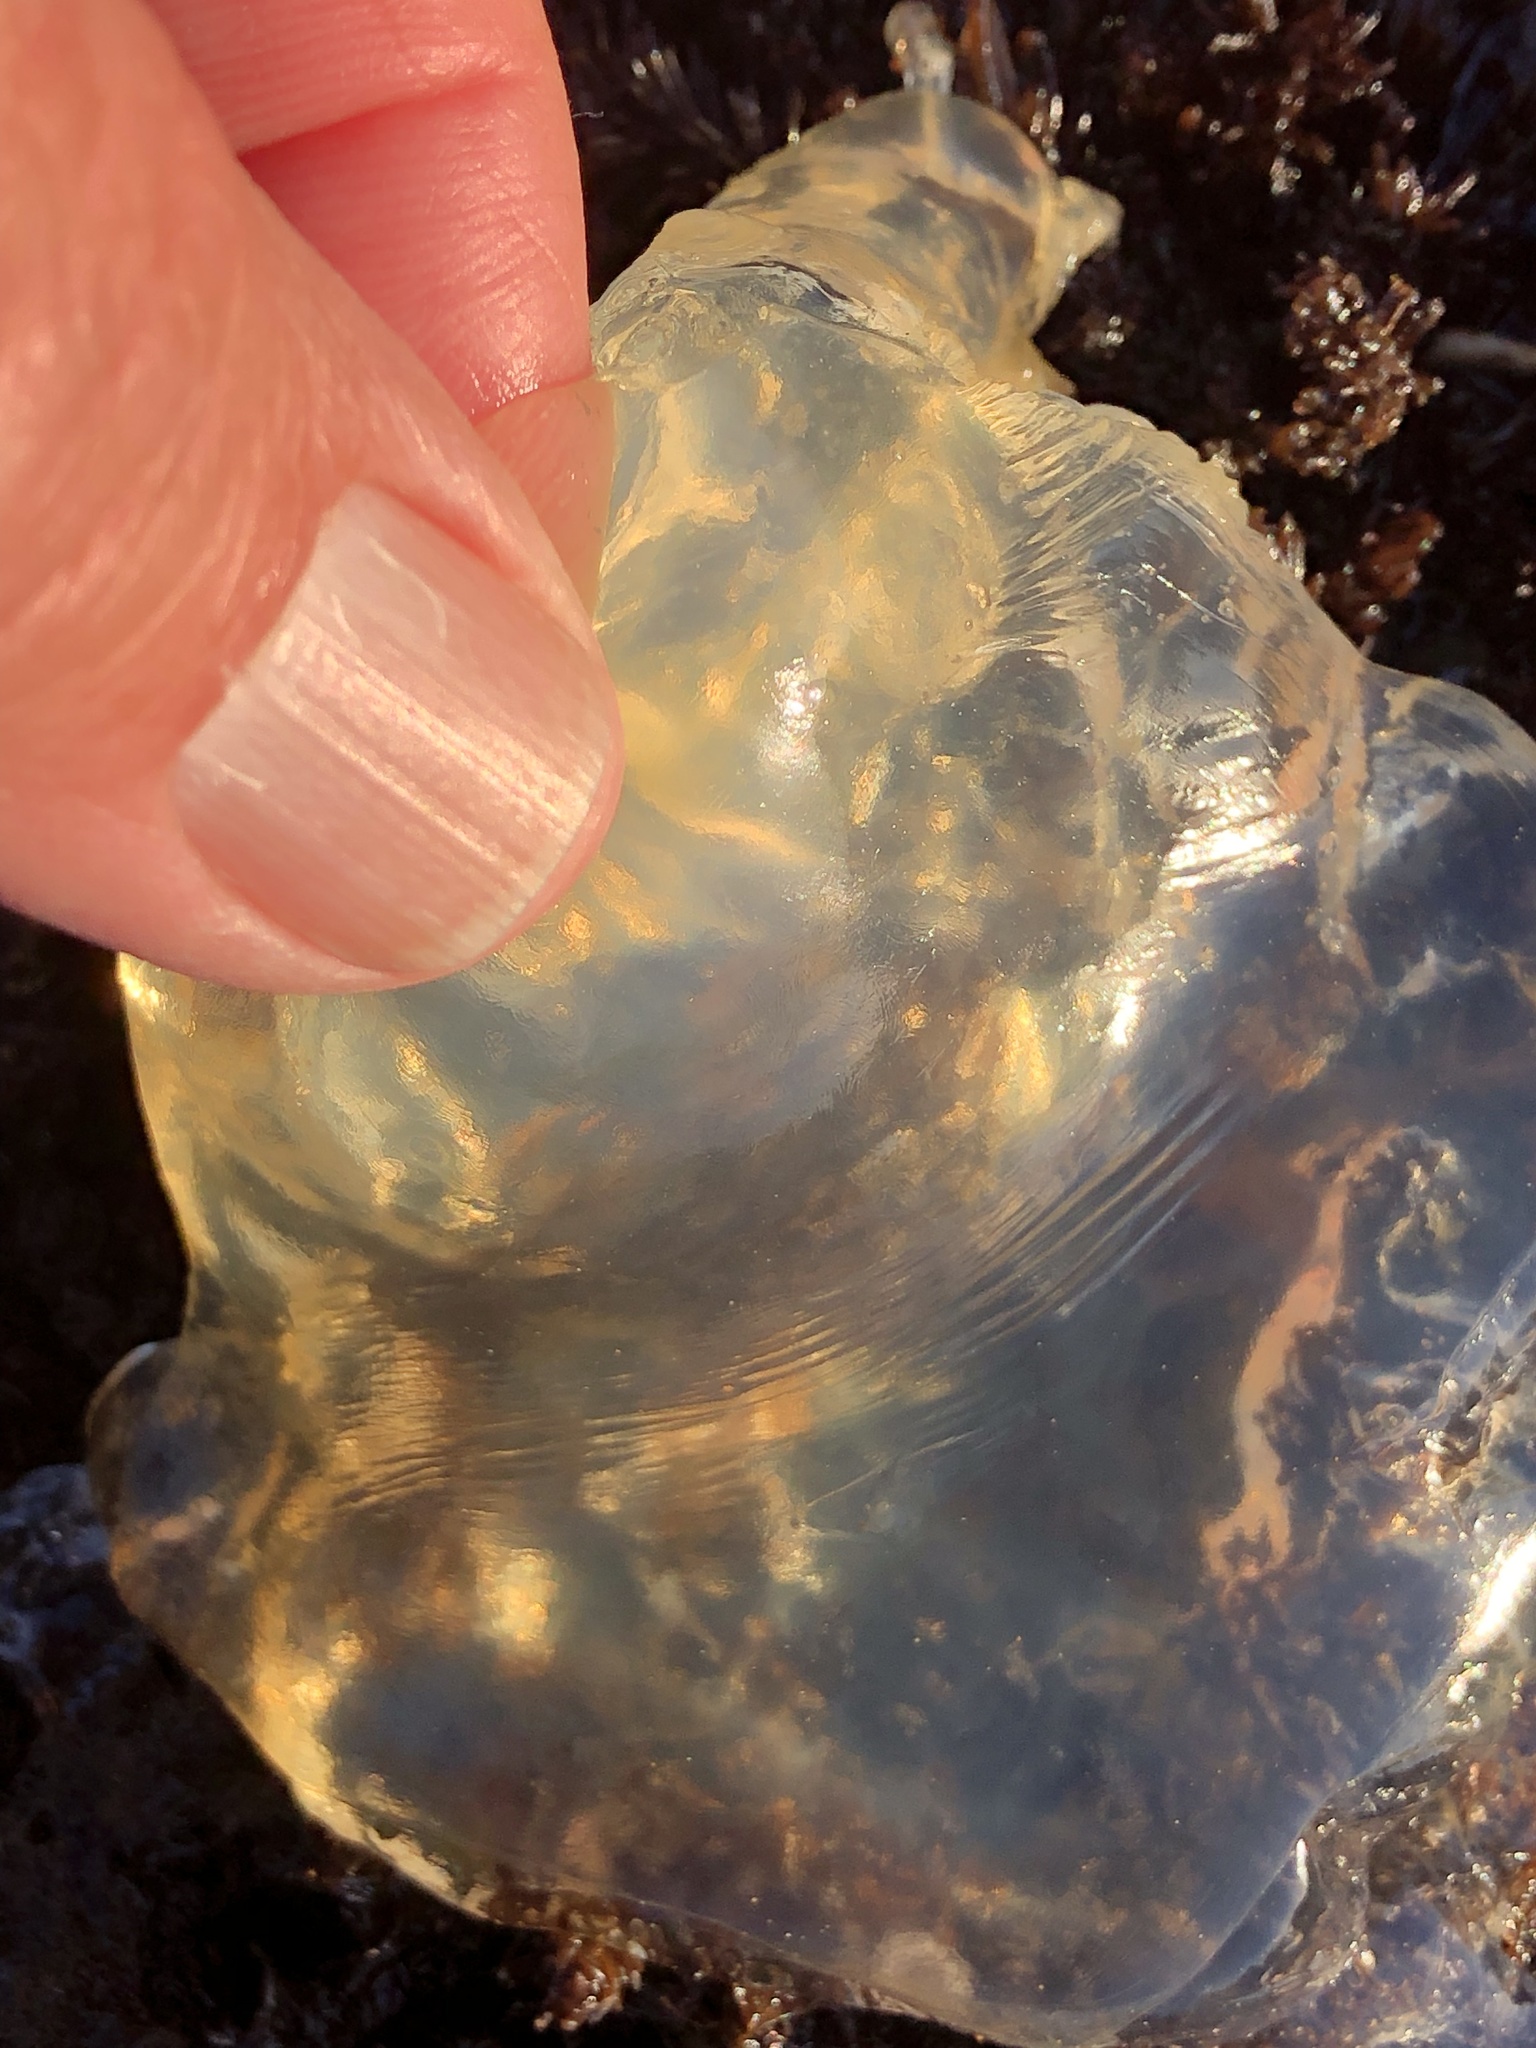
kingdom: Animalia
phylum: Cnidaria
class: Scyphozoa
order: Semaeostomeae
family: Pelagiidae
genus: Chrysaora
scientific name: Chrysaora fuscescens
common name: Sea nettle
